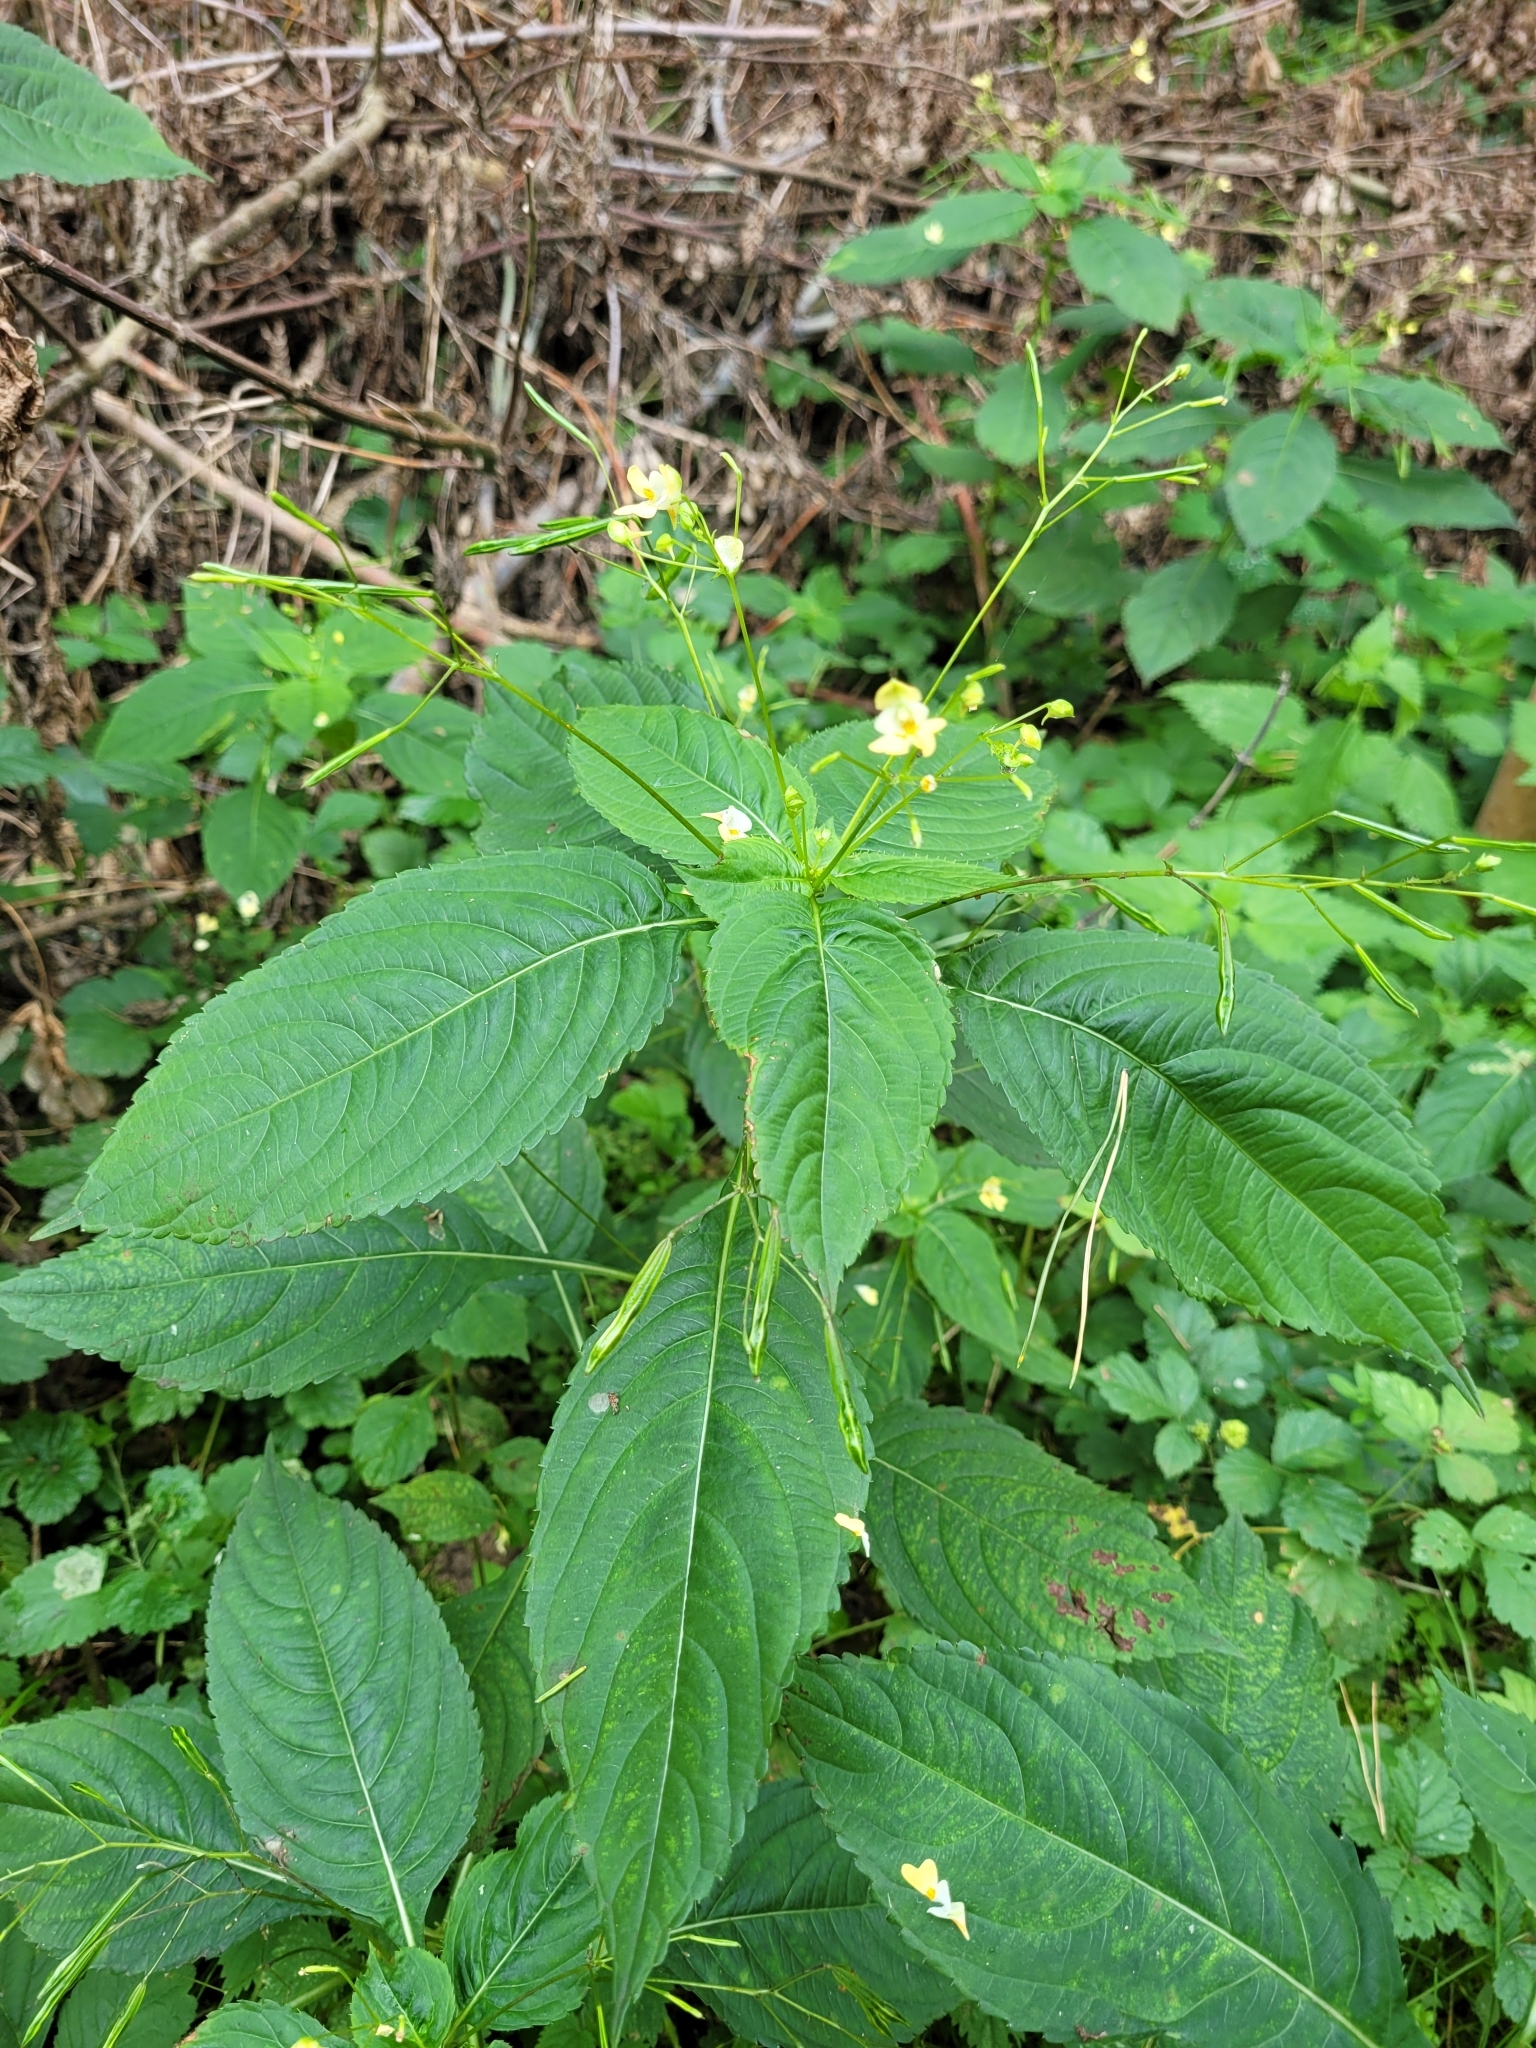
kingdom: Plantae
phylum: Tracheophyta
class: Magnoliopsida
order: Ericales
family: Balsaminaceae
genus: Impatiens
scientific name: Impatiens parviflora
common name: Small balsam
